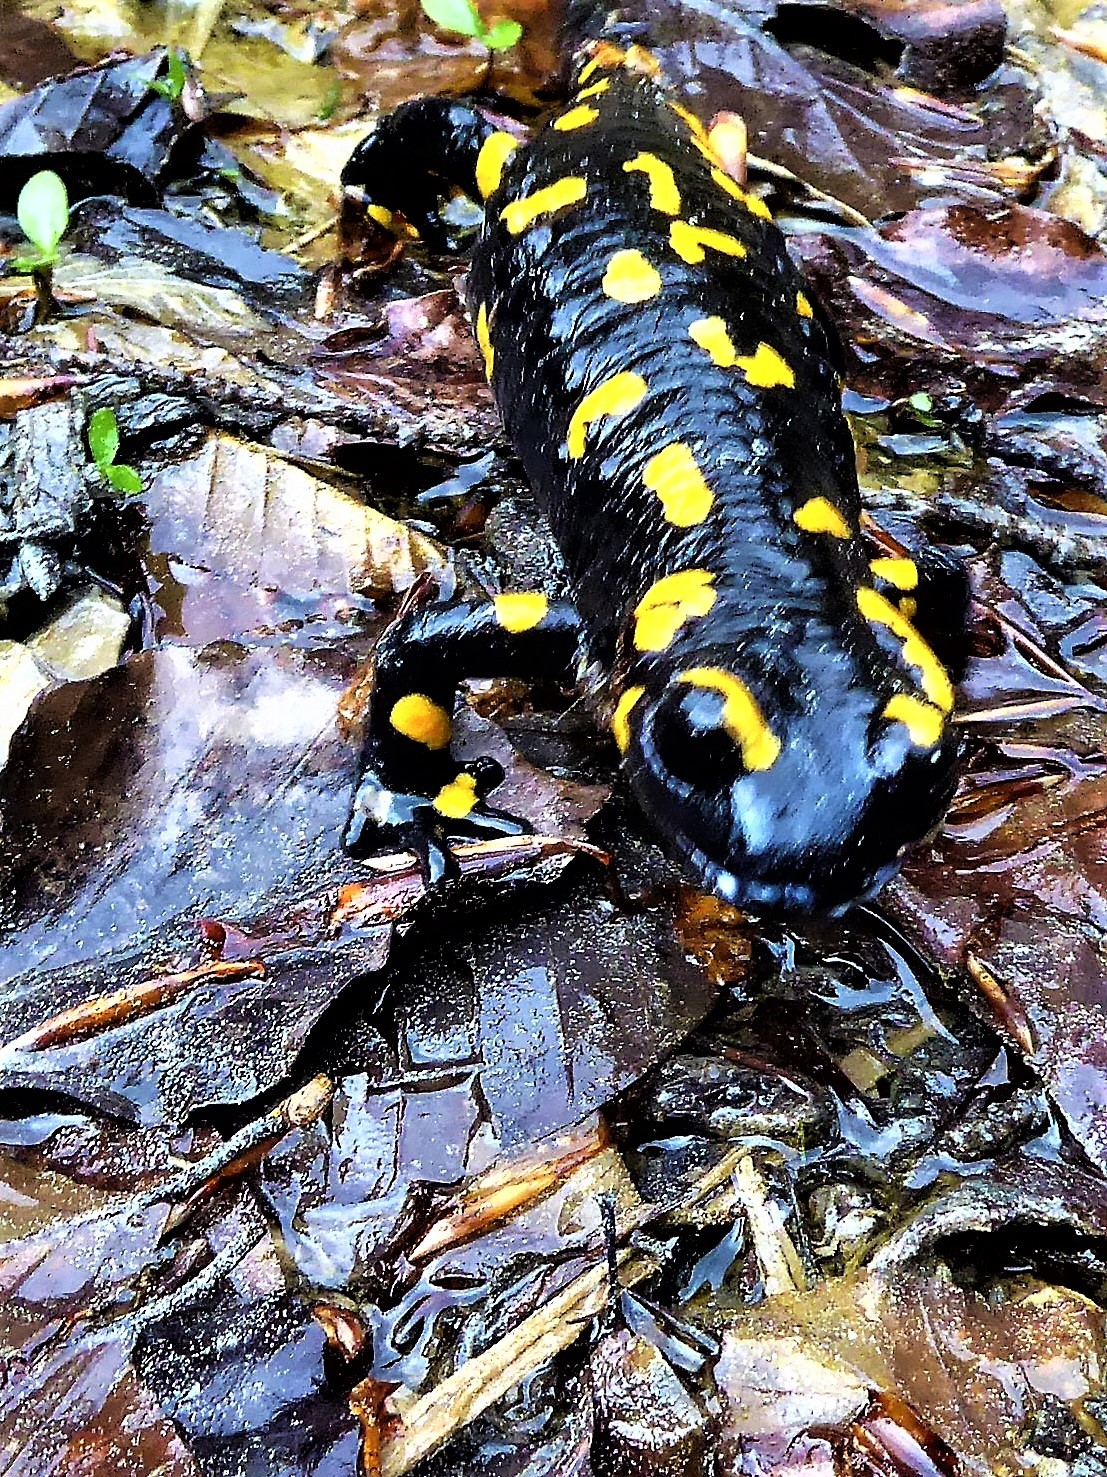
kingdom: Animalia
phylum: Chordata
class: Amphibia
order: Caudata
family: Salamandridae
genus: Salamandra
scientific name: Salamandra salamandra
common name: Fire salamander
